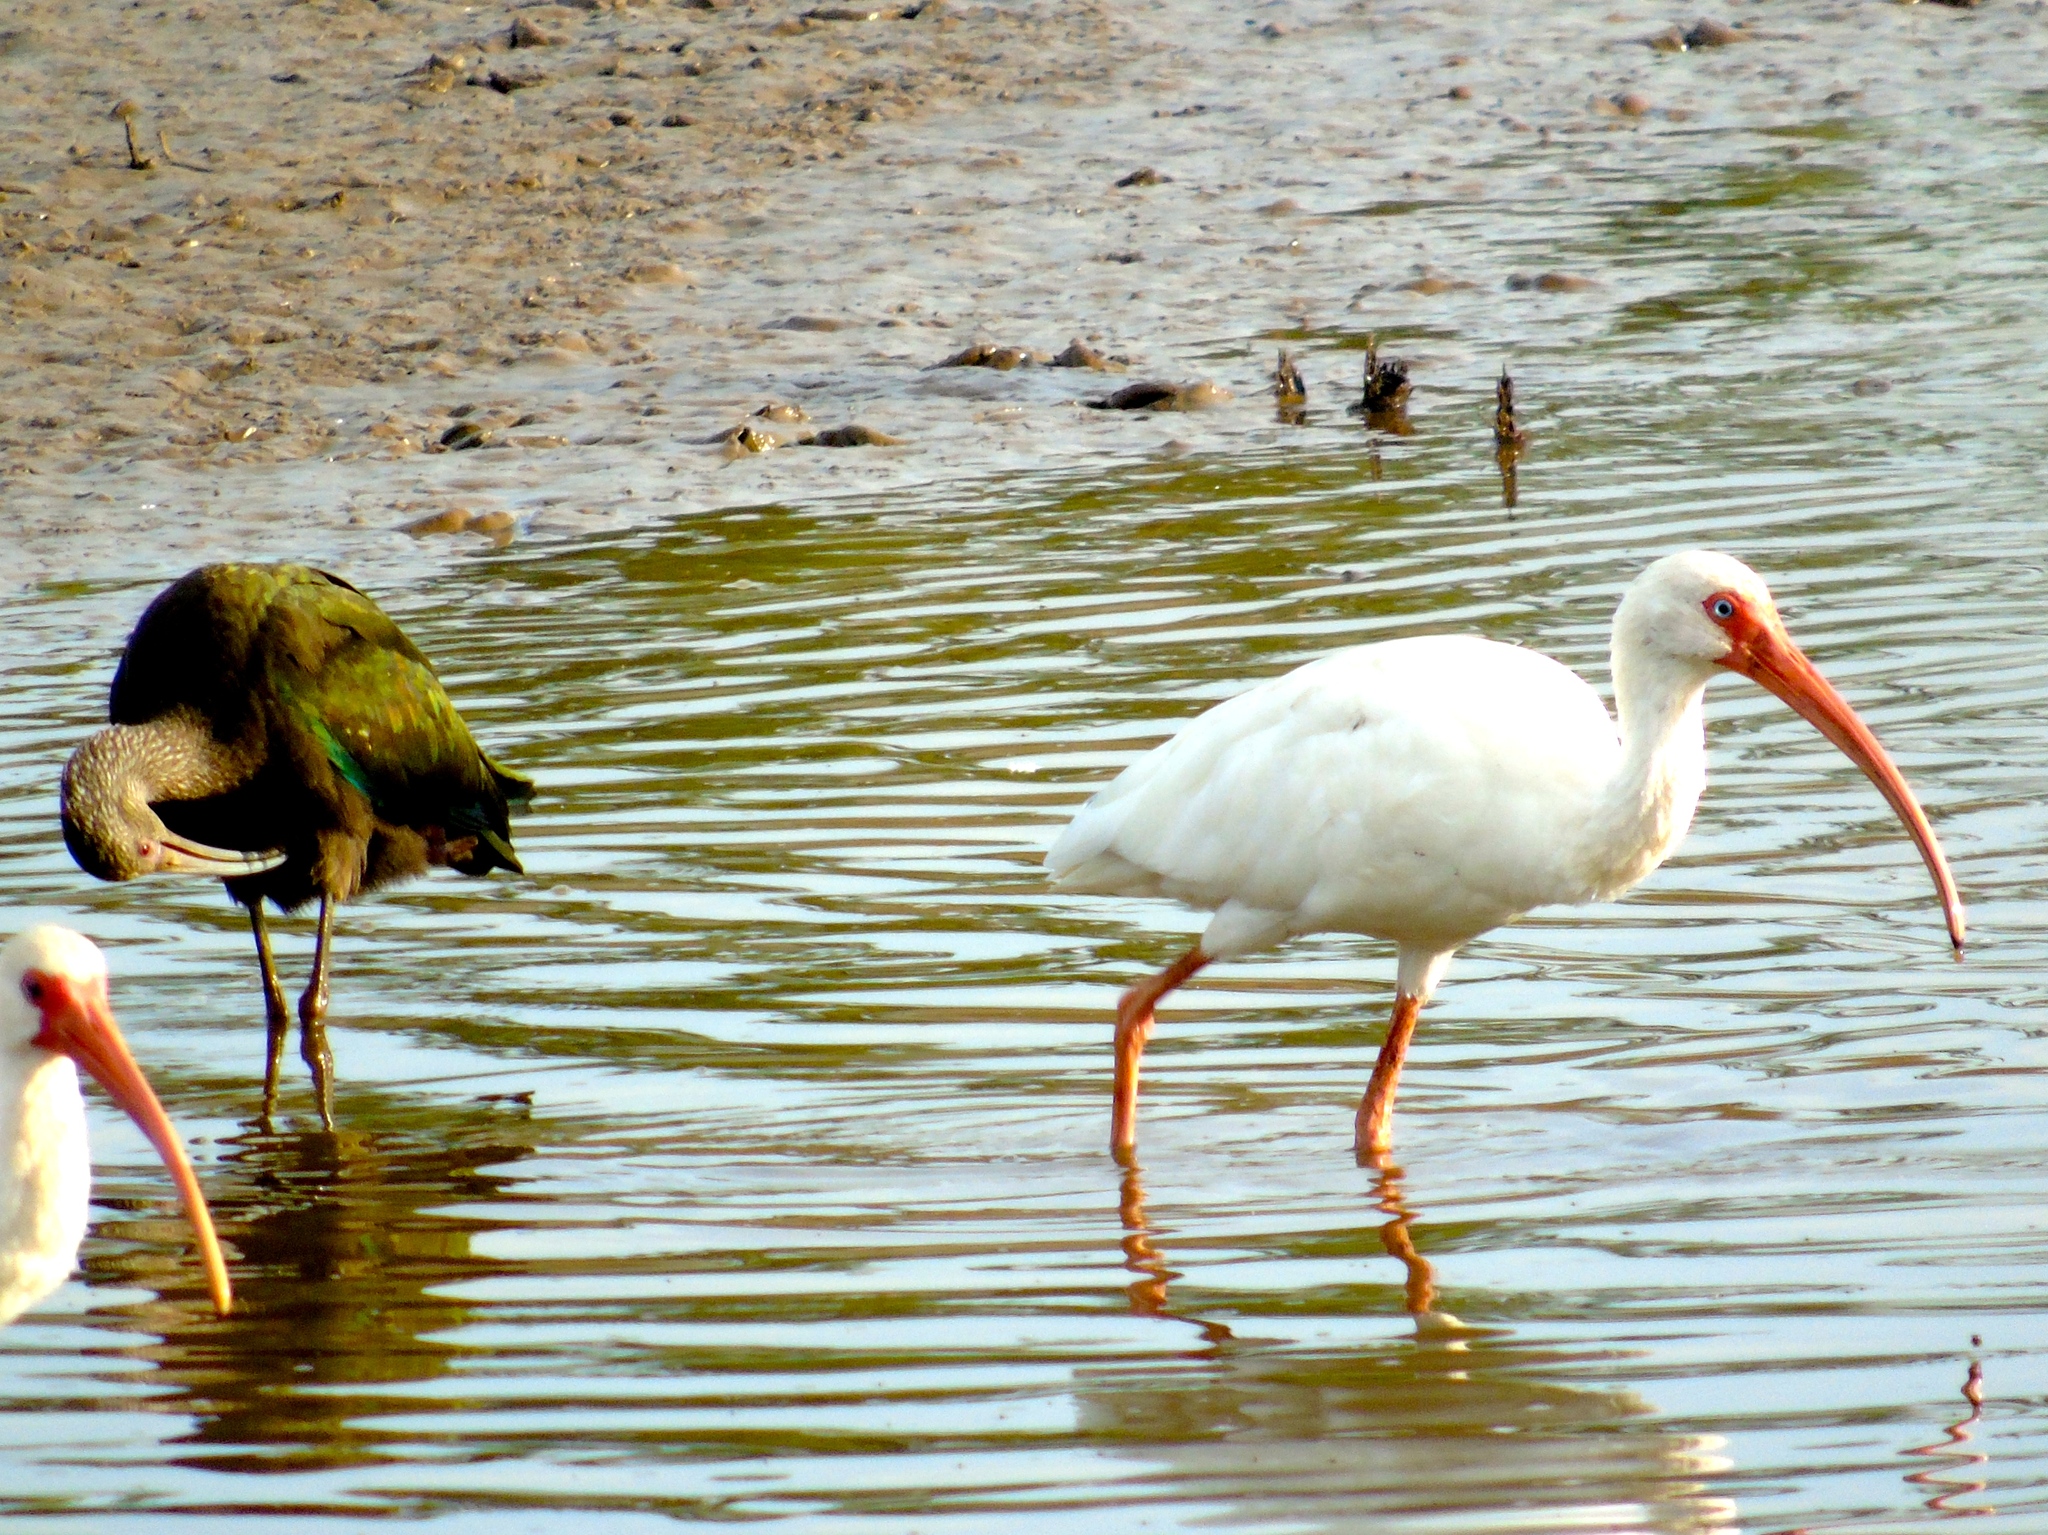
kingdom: Animalia
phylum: Chordata
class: Aves
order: Pelecaniformes
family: Threskiornithidae
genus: Eudocimus
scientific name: Eudocimus albus
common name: White ibis
